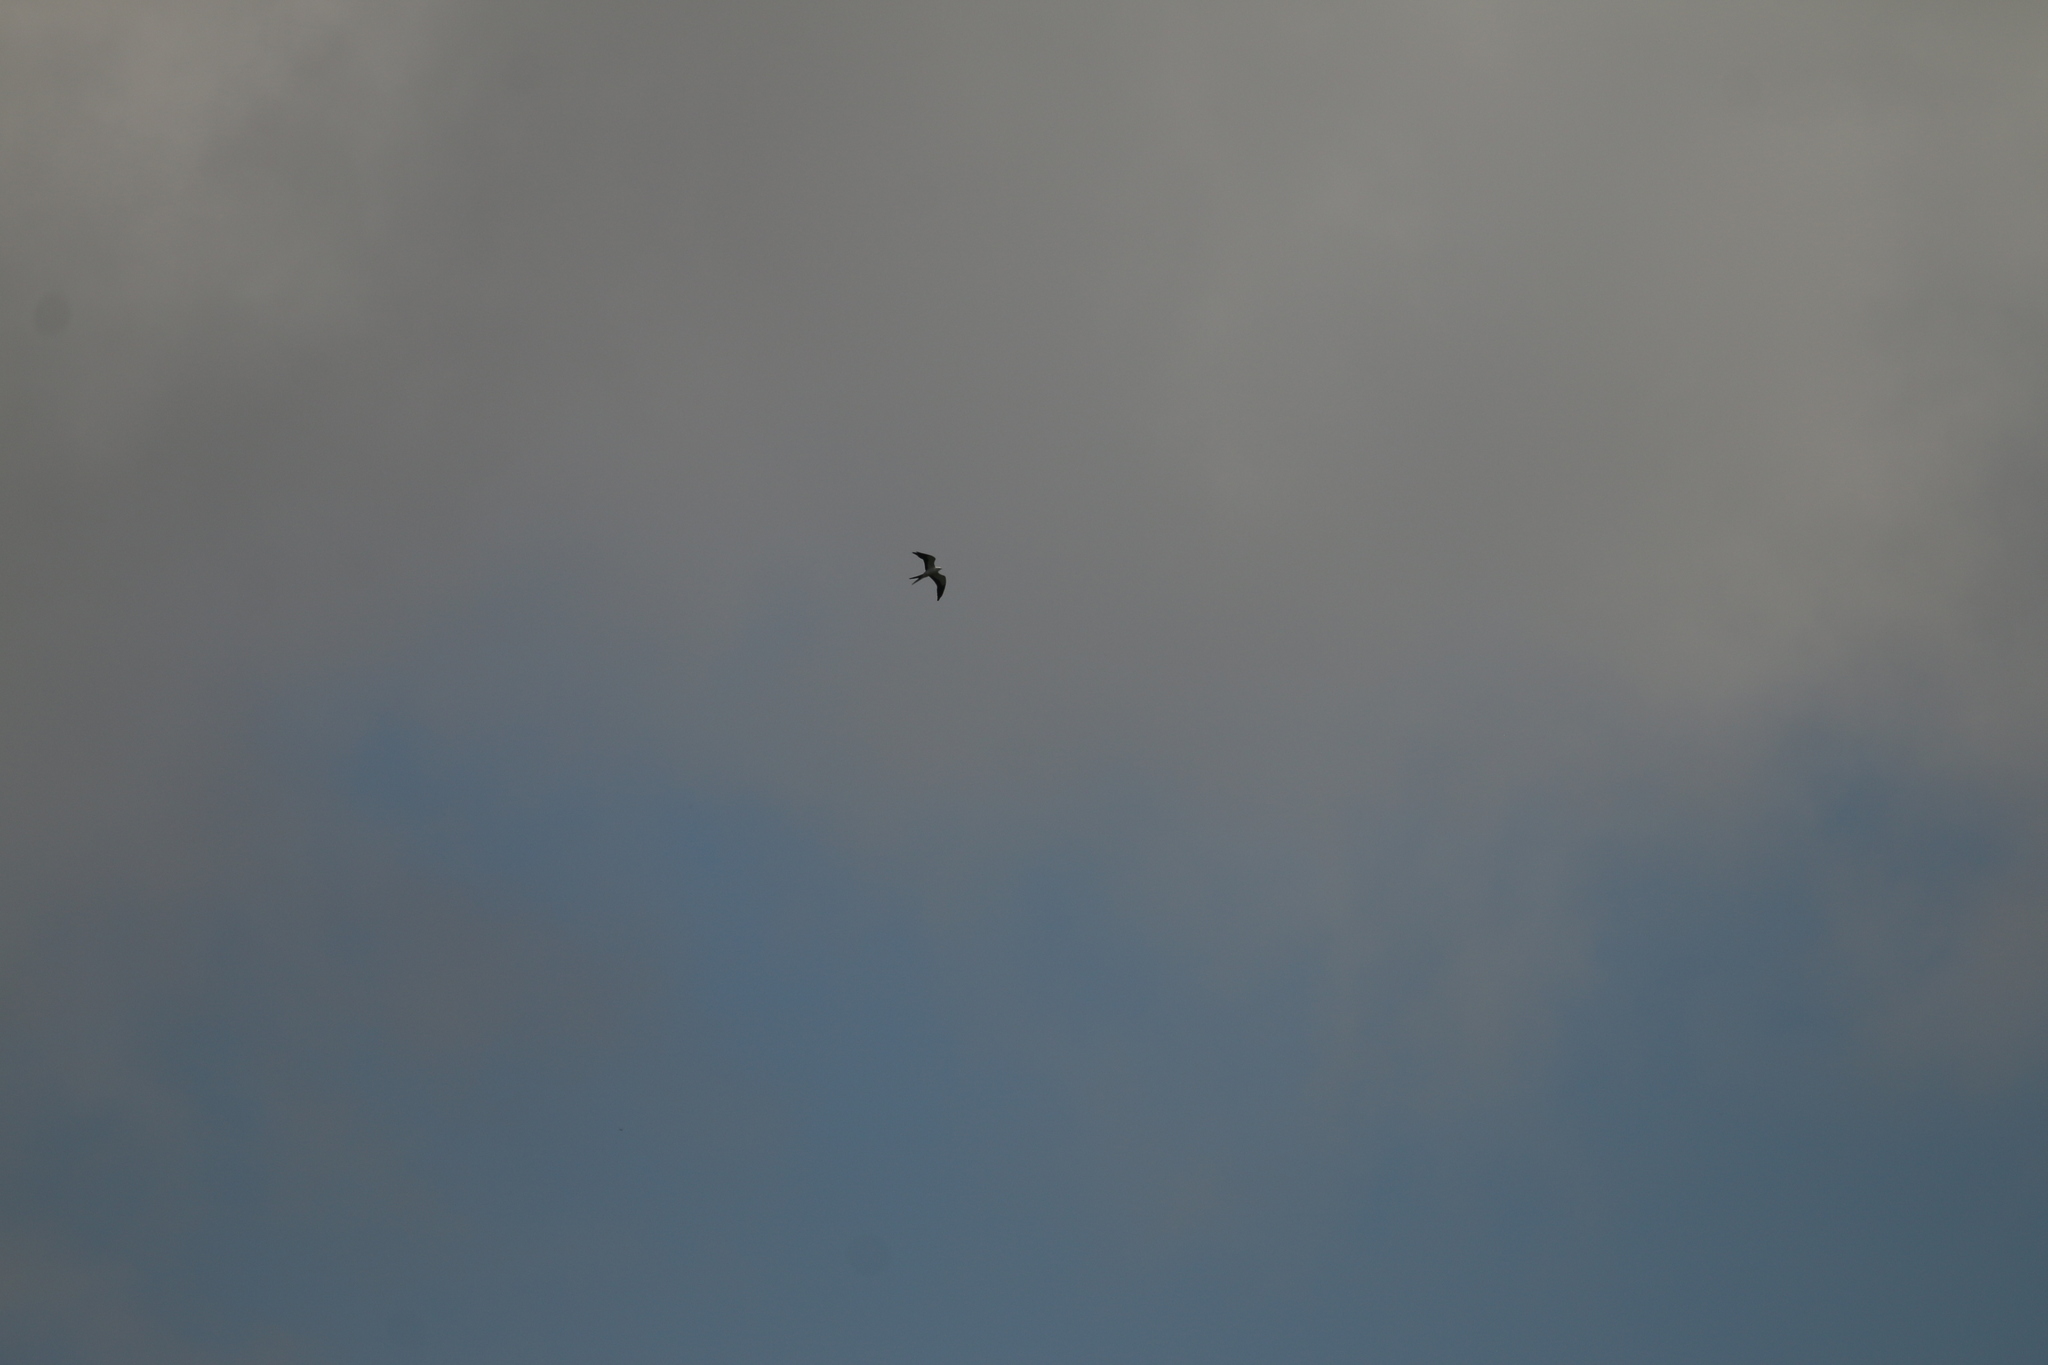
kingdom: Animalia
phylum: Chordata
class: Aves
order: Accipitriformes
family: Accipitridae
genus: Elanoides
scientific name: Elanoides forficatus
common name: Swallow-tailed kite
